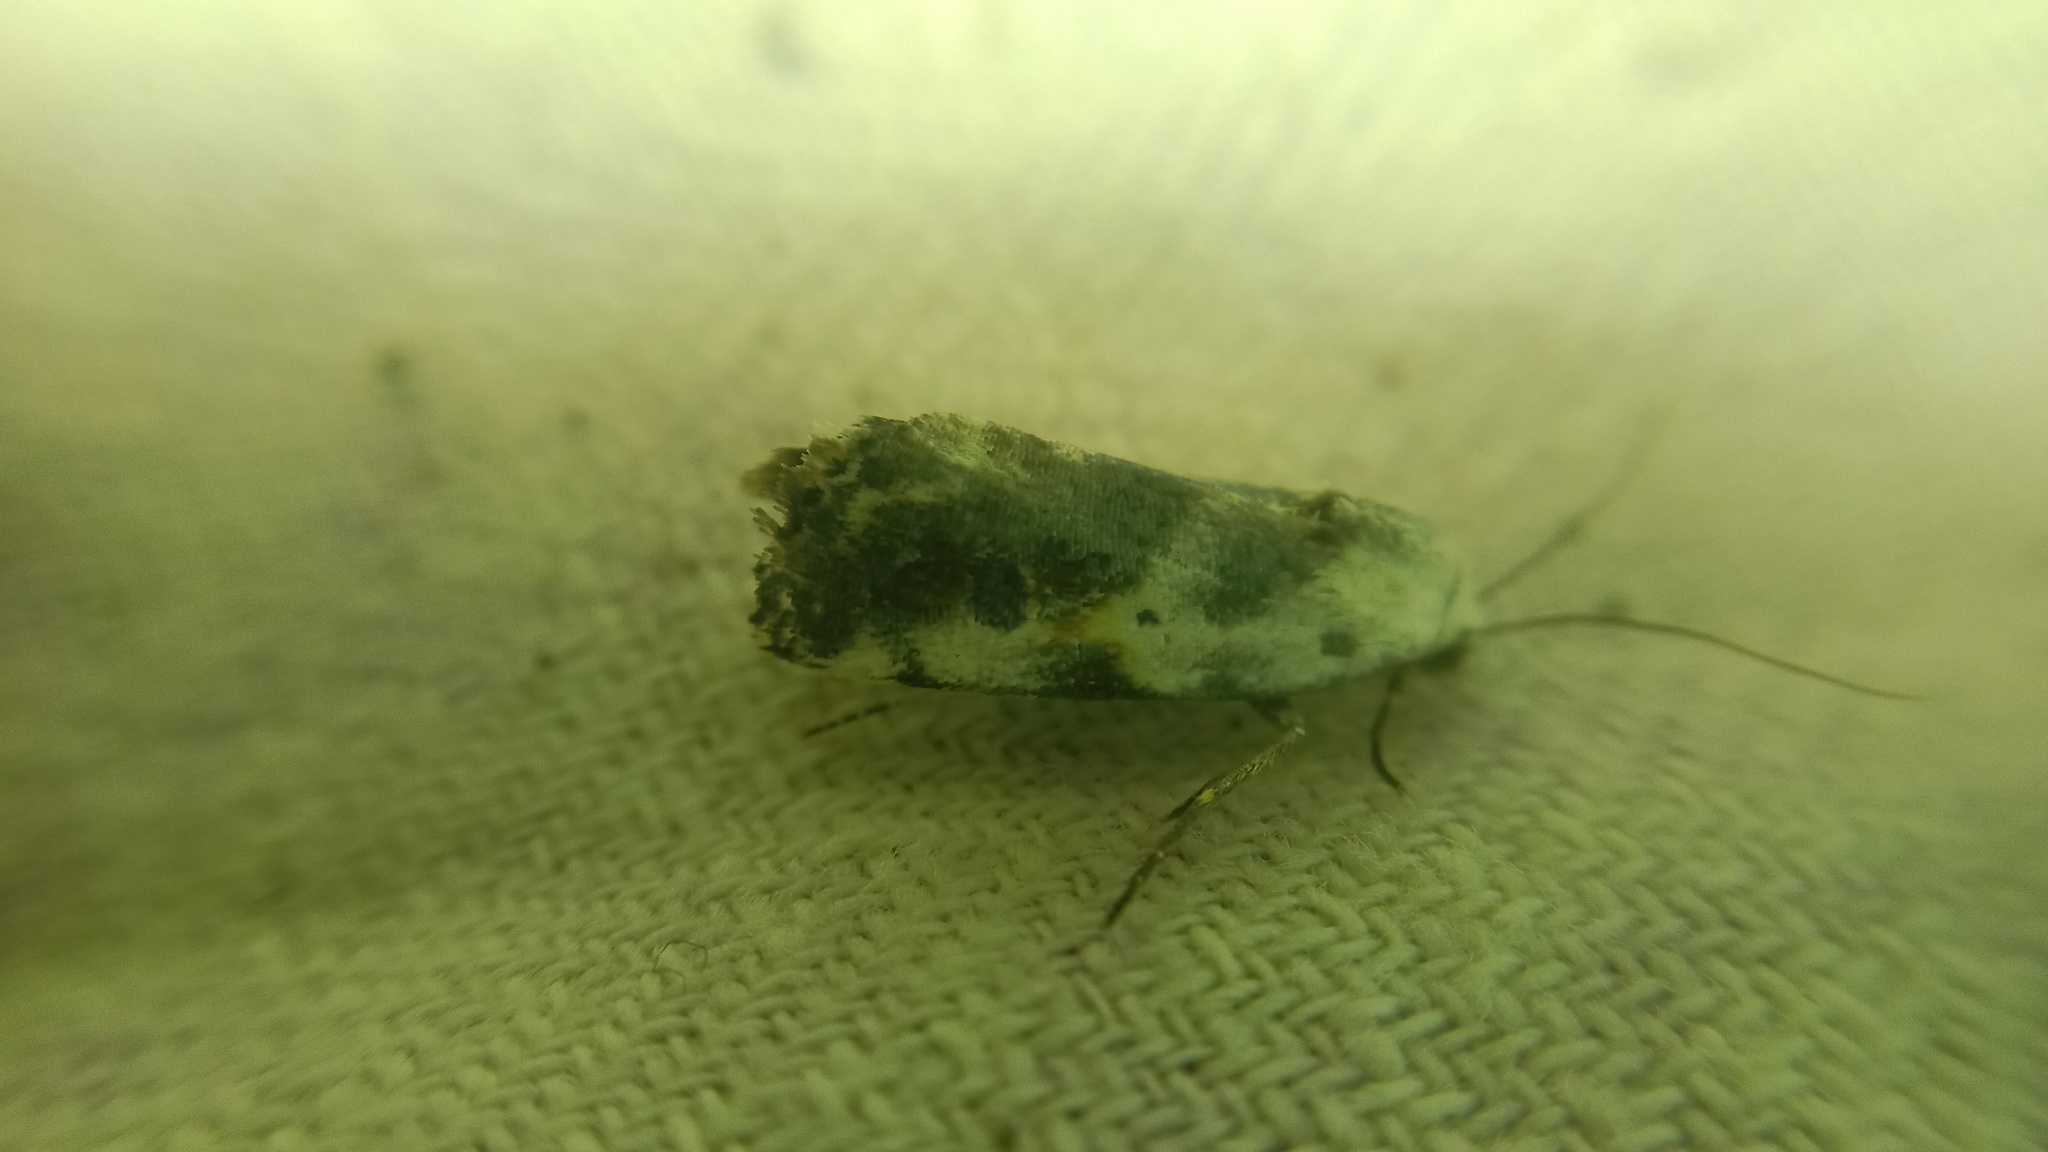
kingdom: Animalia
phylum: Arthropoda
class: Insecta
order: Lepidoptera
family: Noctuidae
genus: Acontia
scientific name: Acontia candefacta
